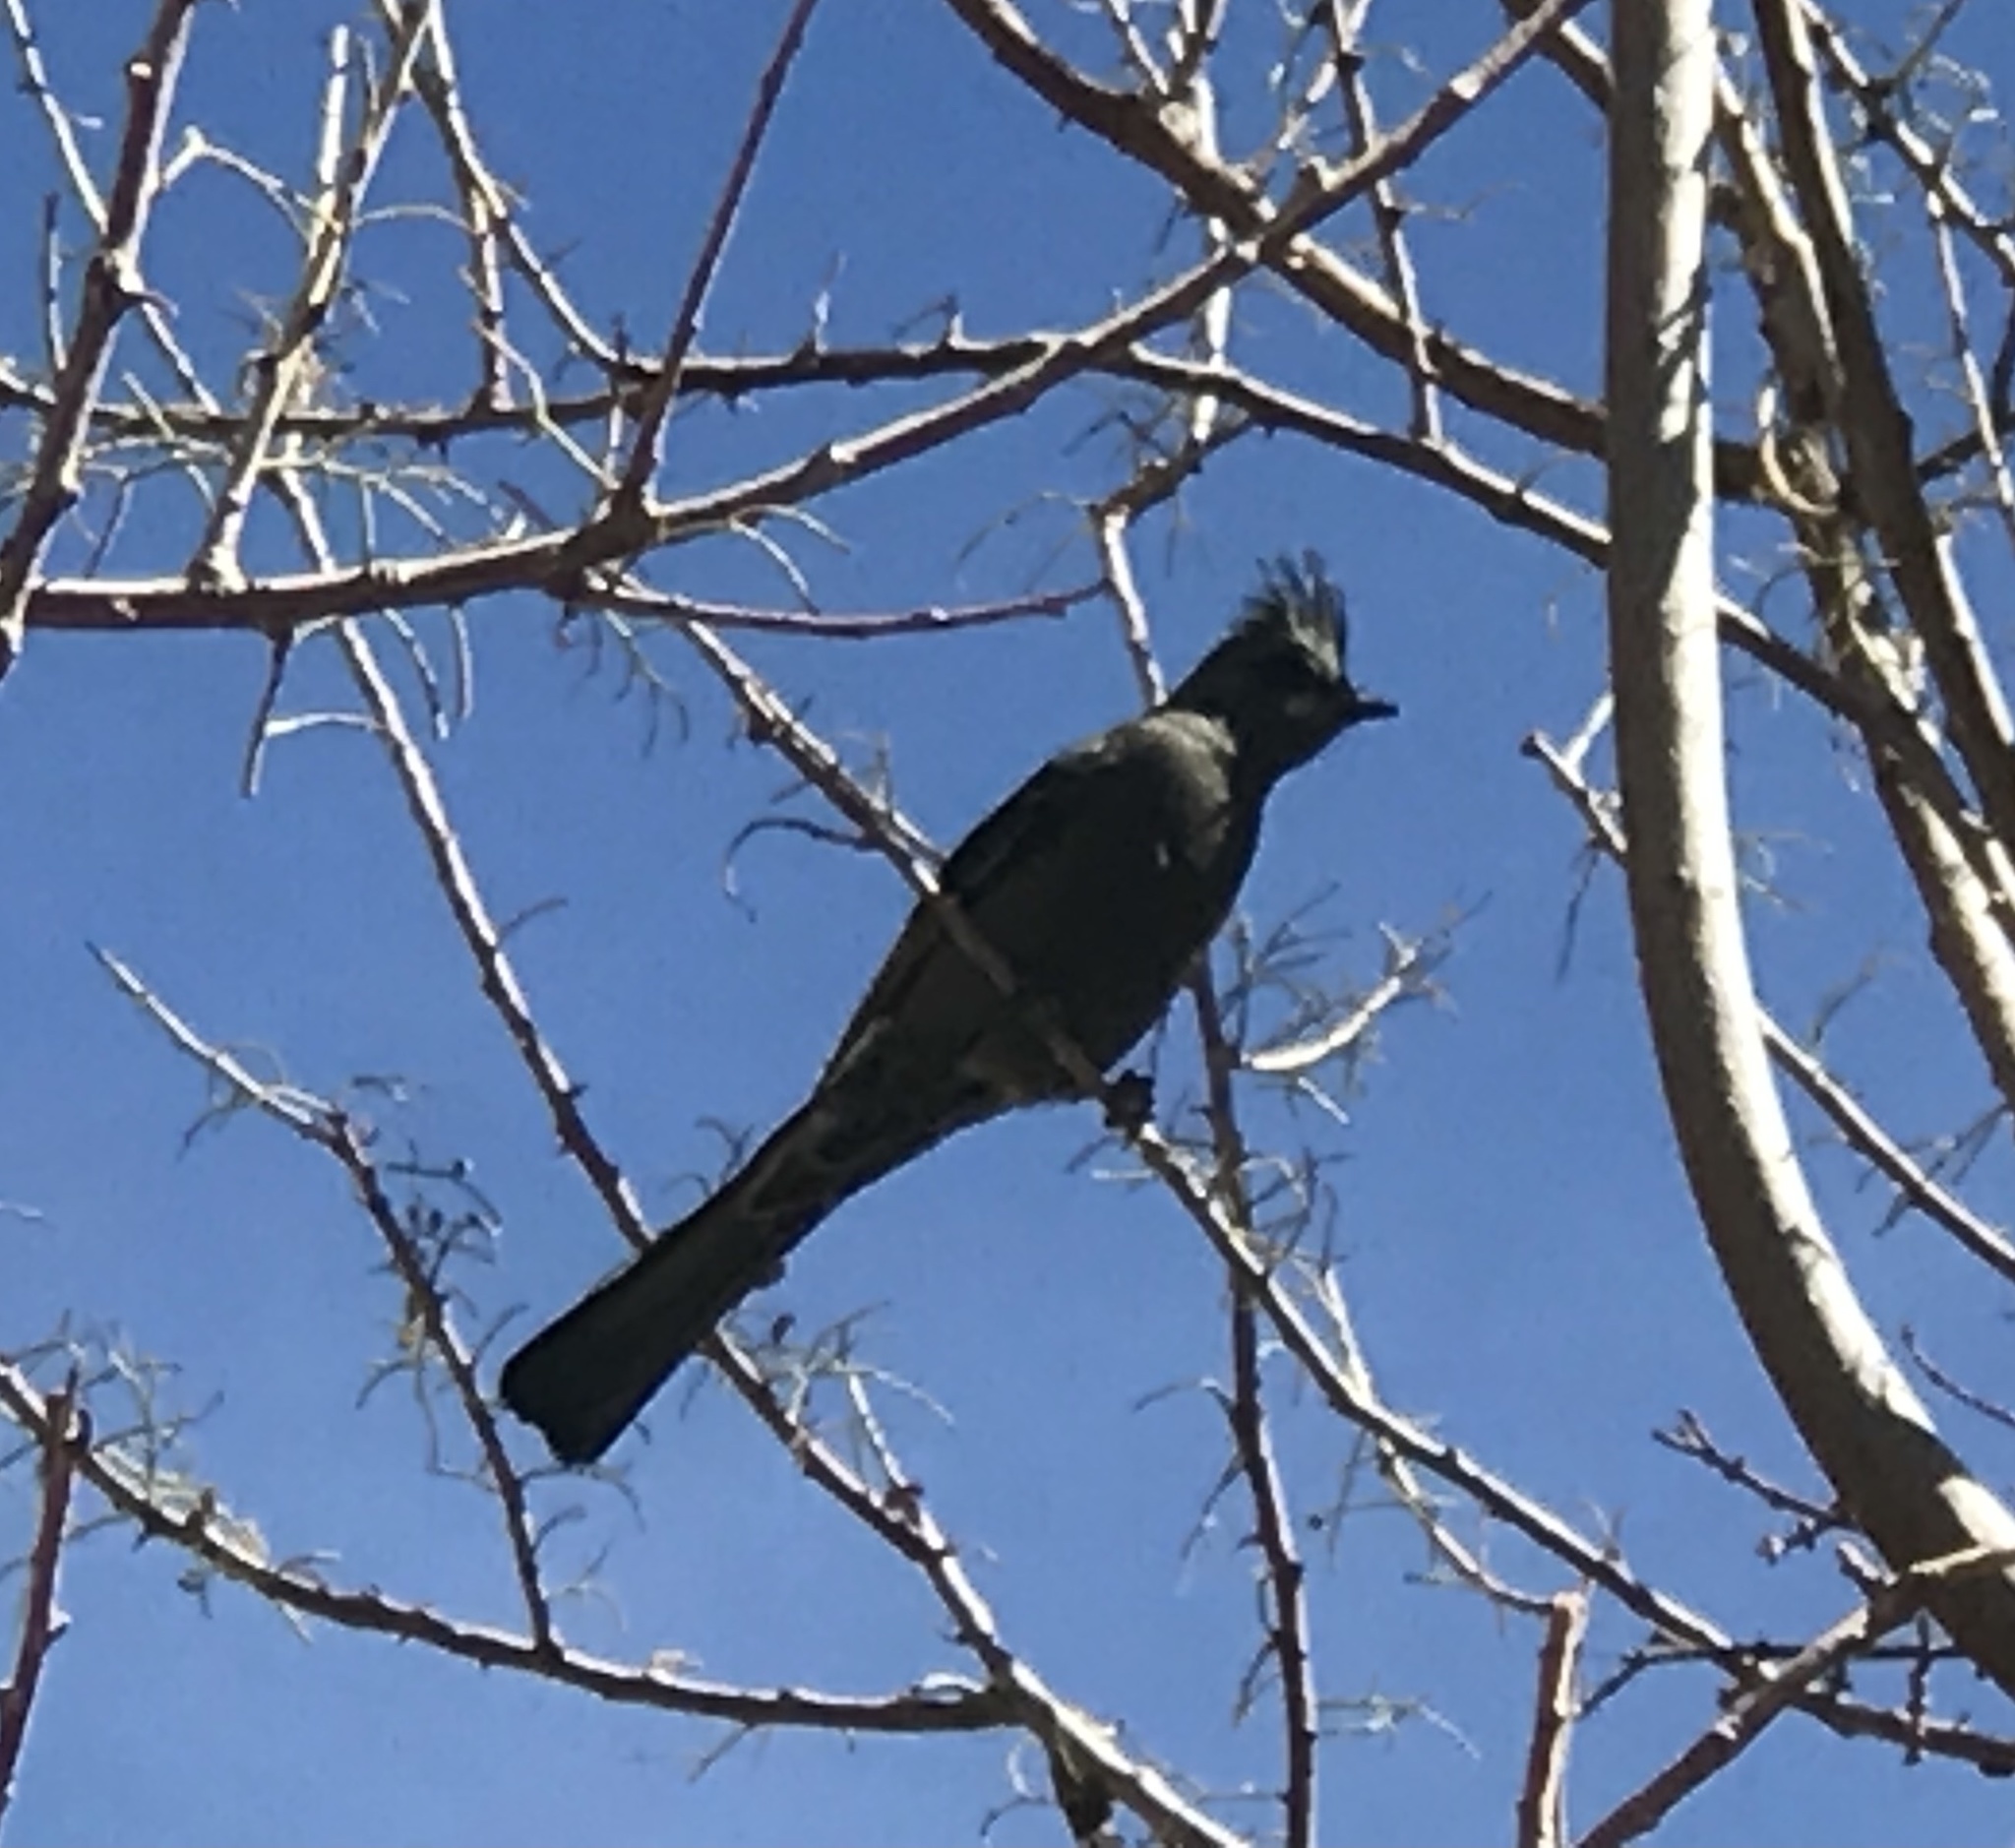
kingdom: Animalia
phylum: Chordata
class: Aves
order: Passeriformes
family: Ptilogonatidae
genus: Phainopepla
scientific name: Phainopepla nitens
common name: Phainopepla
